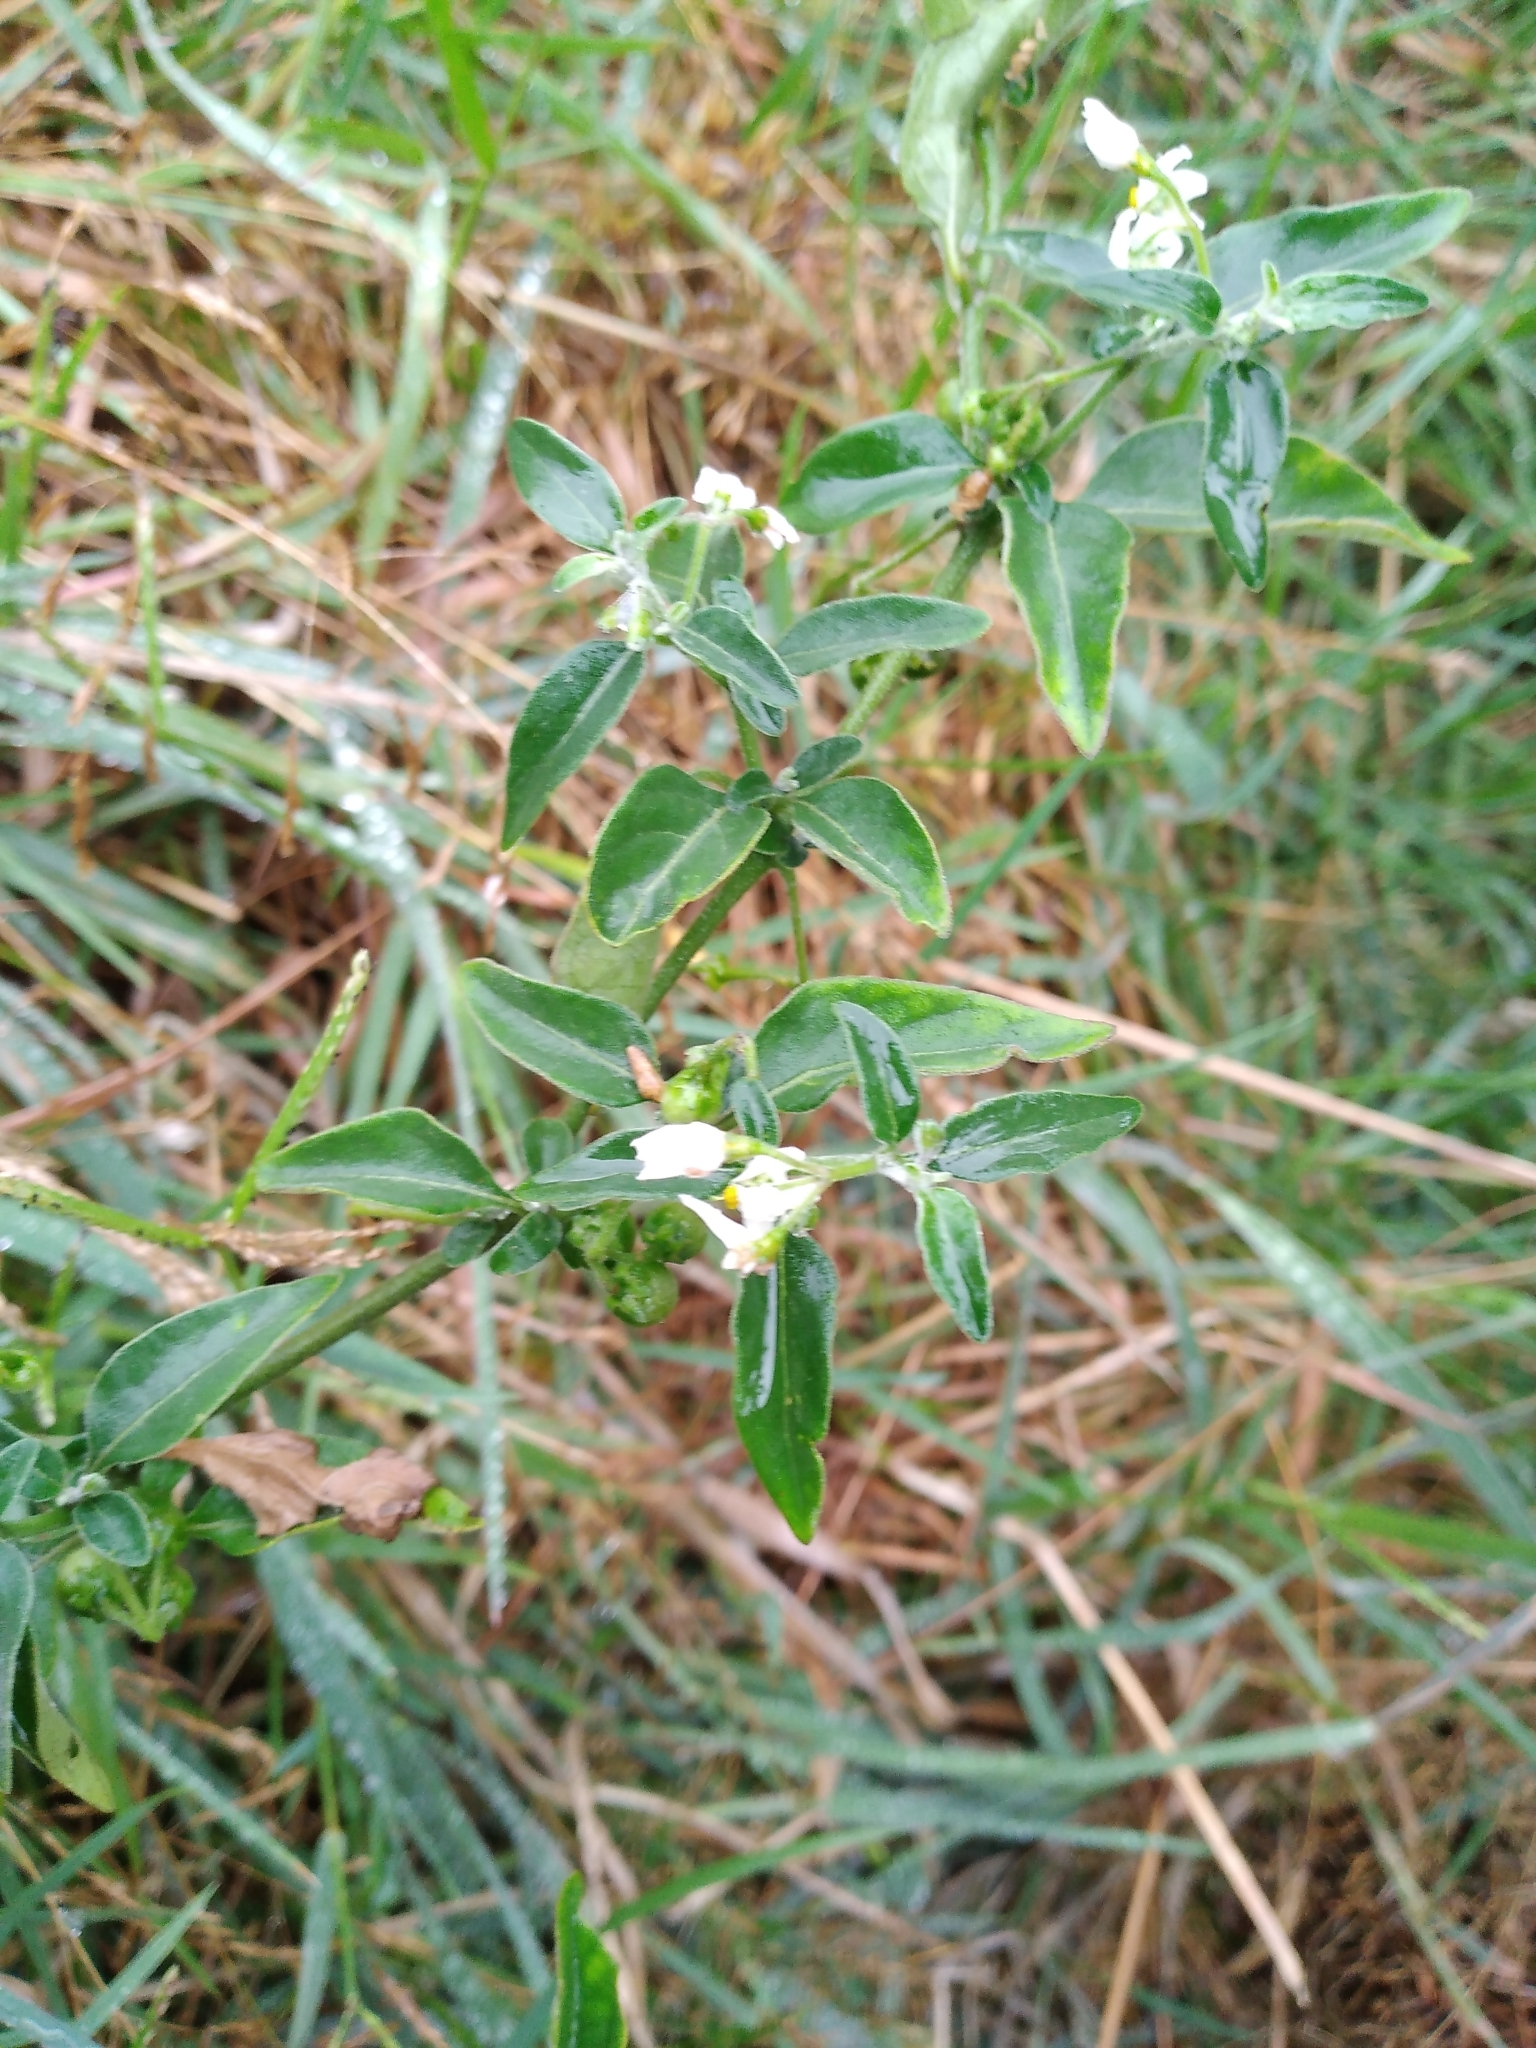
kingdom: Plantae
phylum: Tracheophyta
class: Magnoliopsida
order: Solanales
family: Solanaceae
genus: Solanum
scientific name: Solanum chenopodioides
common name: Tall nightshade
